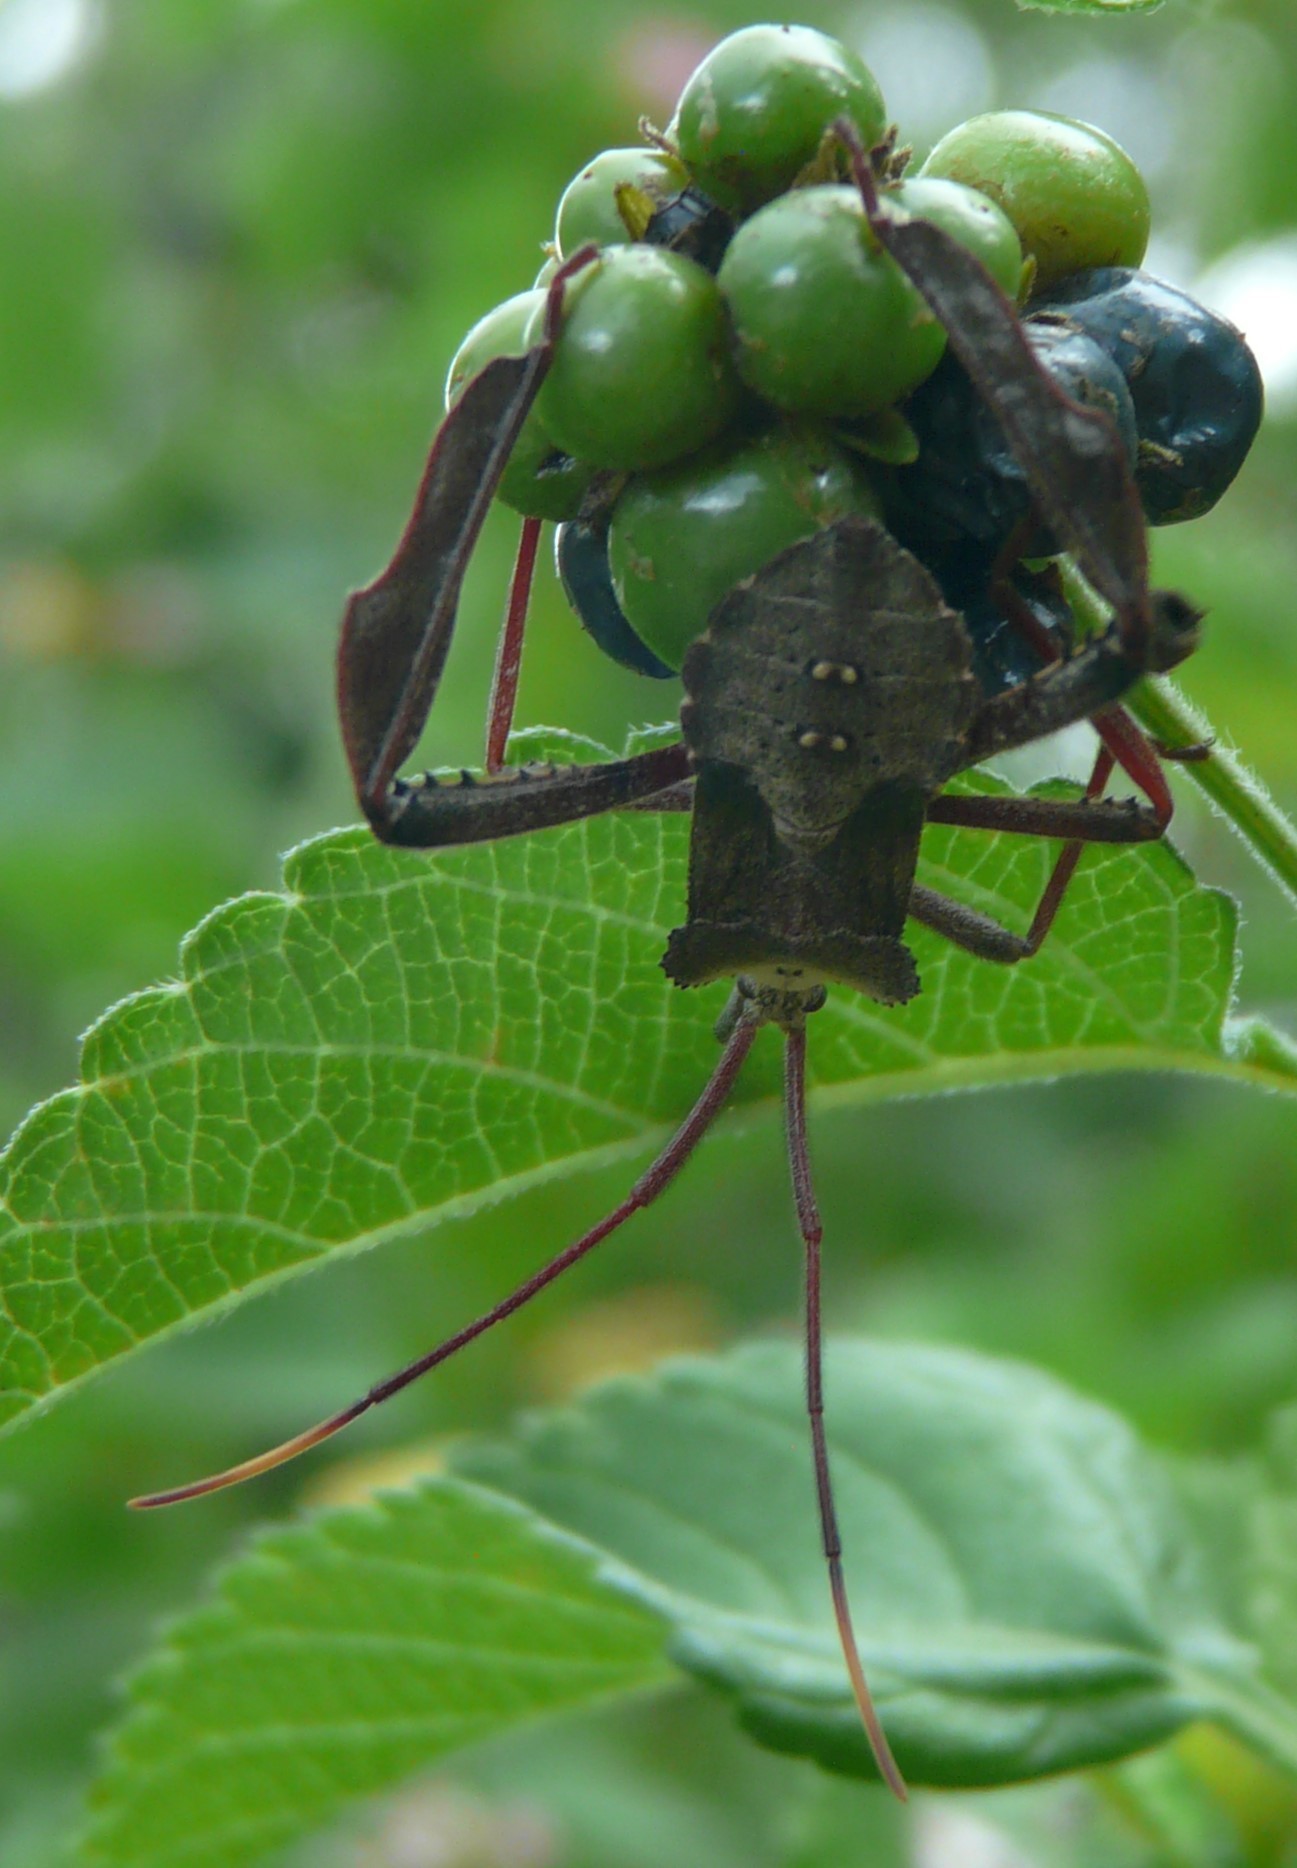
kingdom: Animalia
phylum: Arthropoda
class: Insecta
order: Hemiptera
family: Coreidae
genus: Acanthocephala
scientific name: Acanthocephala declivis
